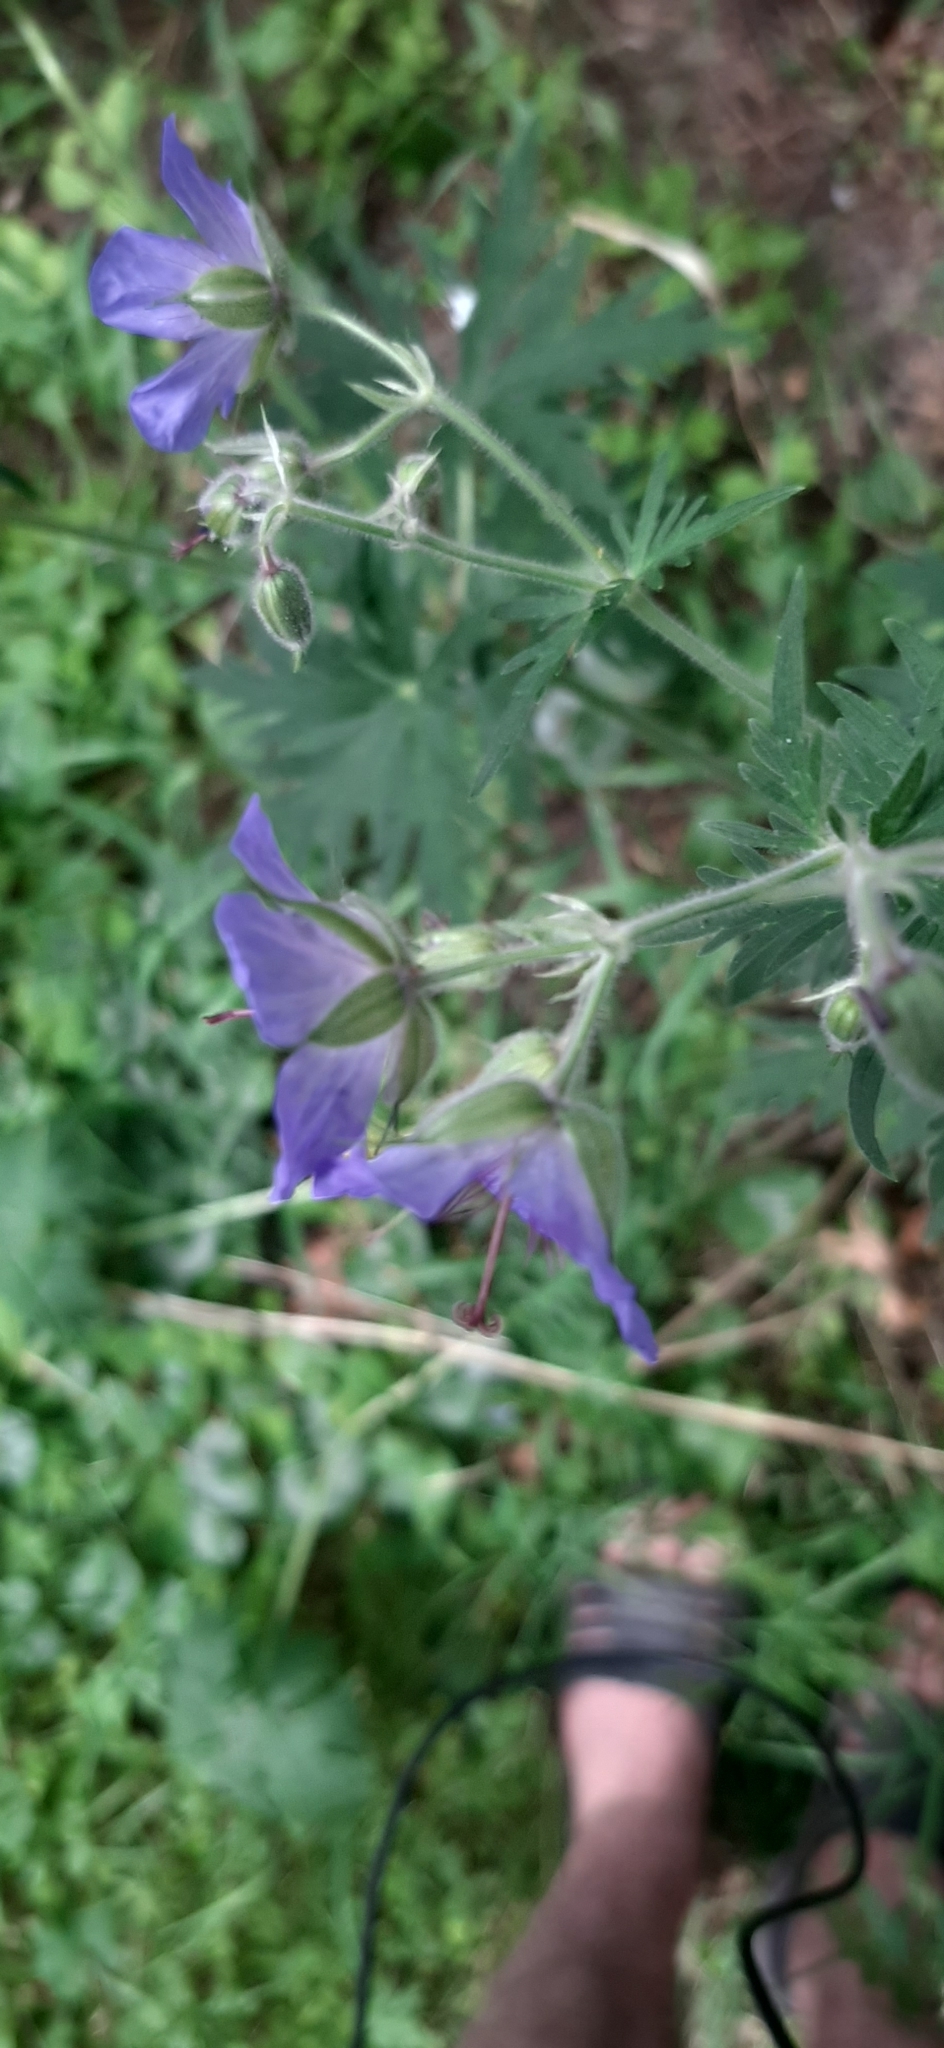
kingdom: Plantae
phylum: Tracheophyta
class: Magnoliopsida
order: Geraniales
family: Geraniaceae
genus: Geranium
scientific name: Geranium pratense
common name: Meadow crane's-bill
